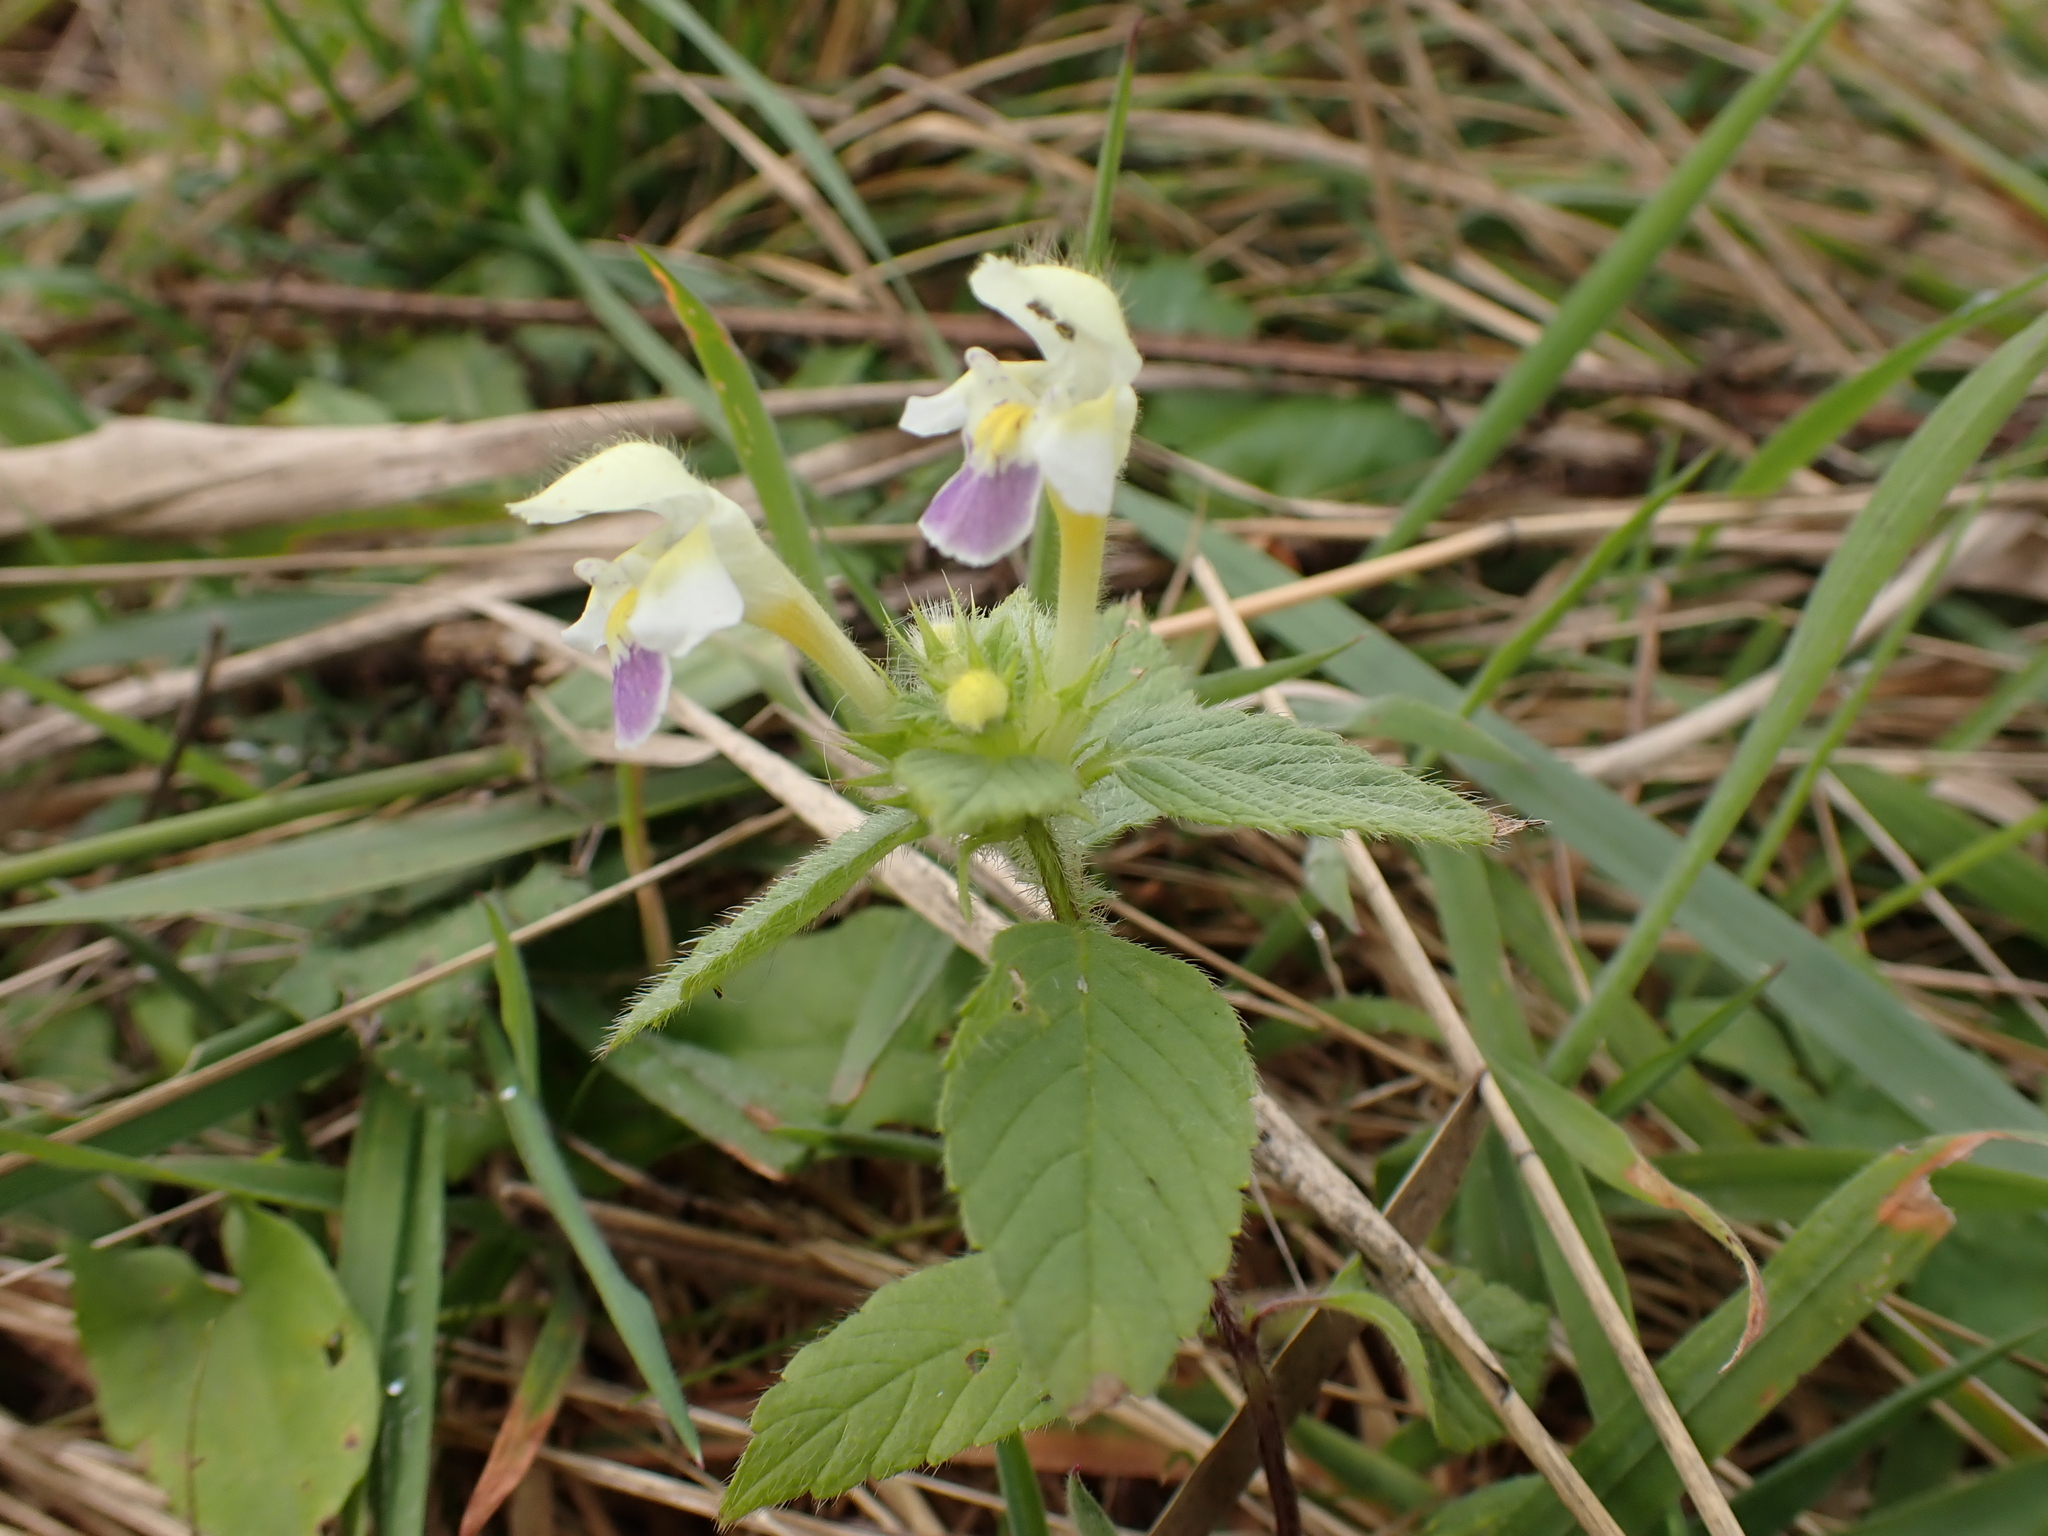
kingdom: Plantae
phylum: Tracheophyta
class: Magnoliopsida
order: Lamiales
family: Lamiaceae
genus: Galeopsis
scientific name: Galeopsis speciosa
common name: Large-flowered hemp-nettle
